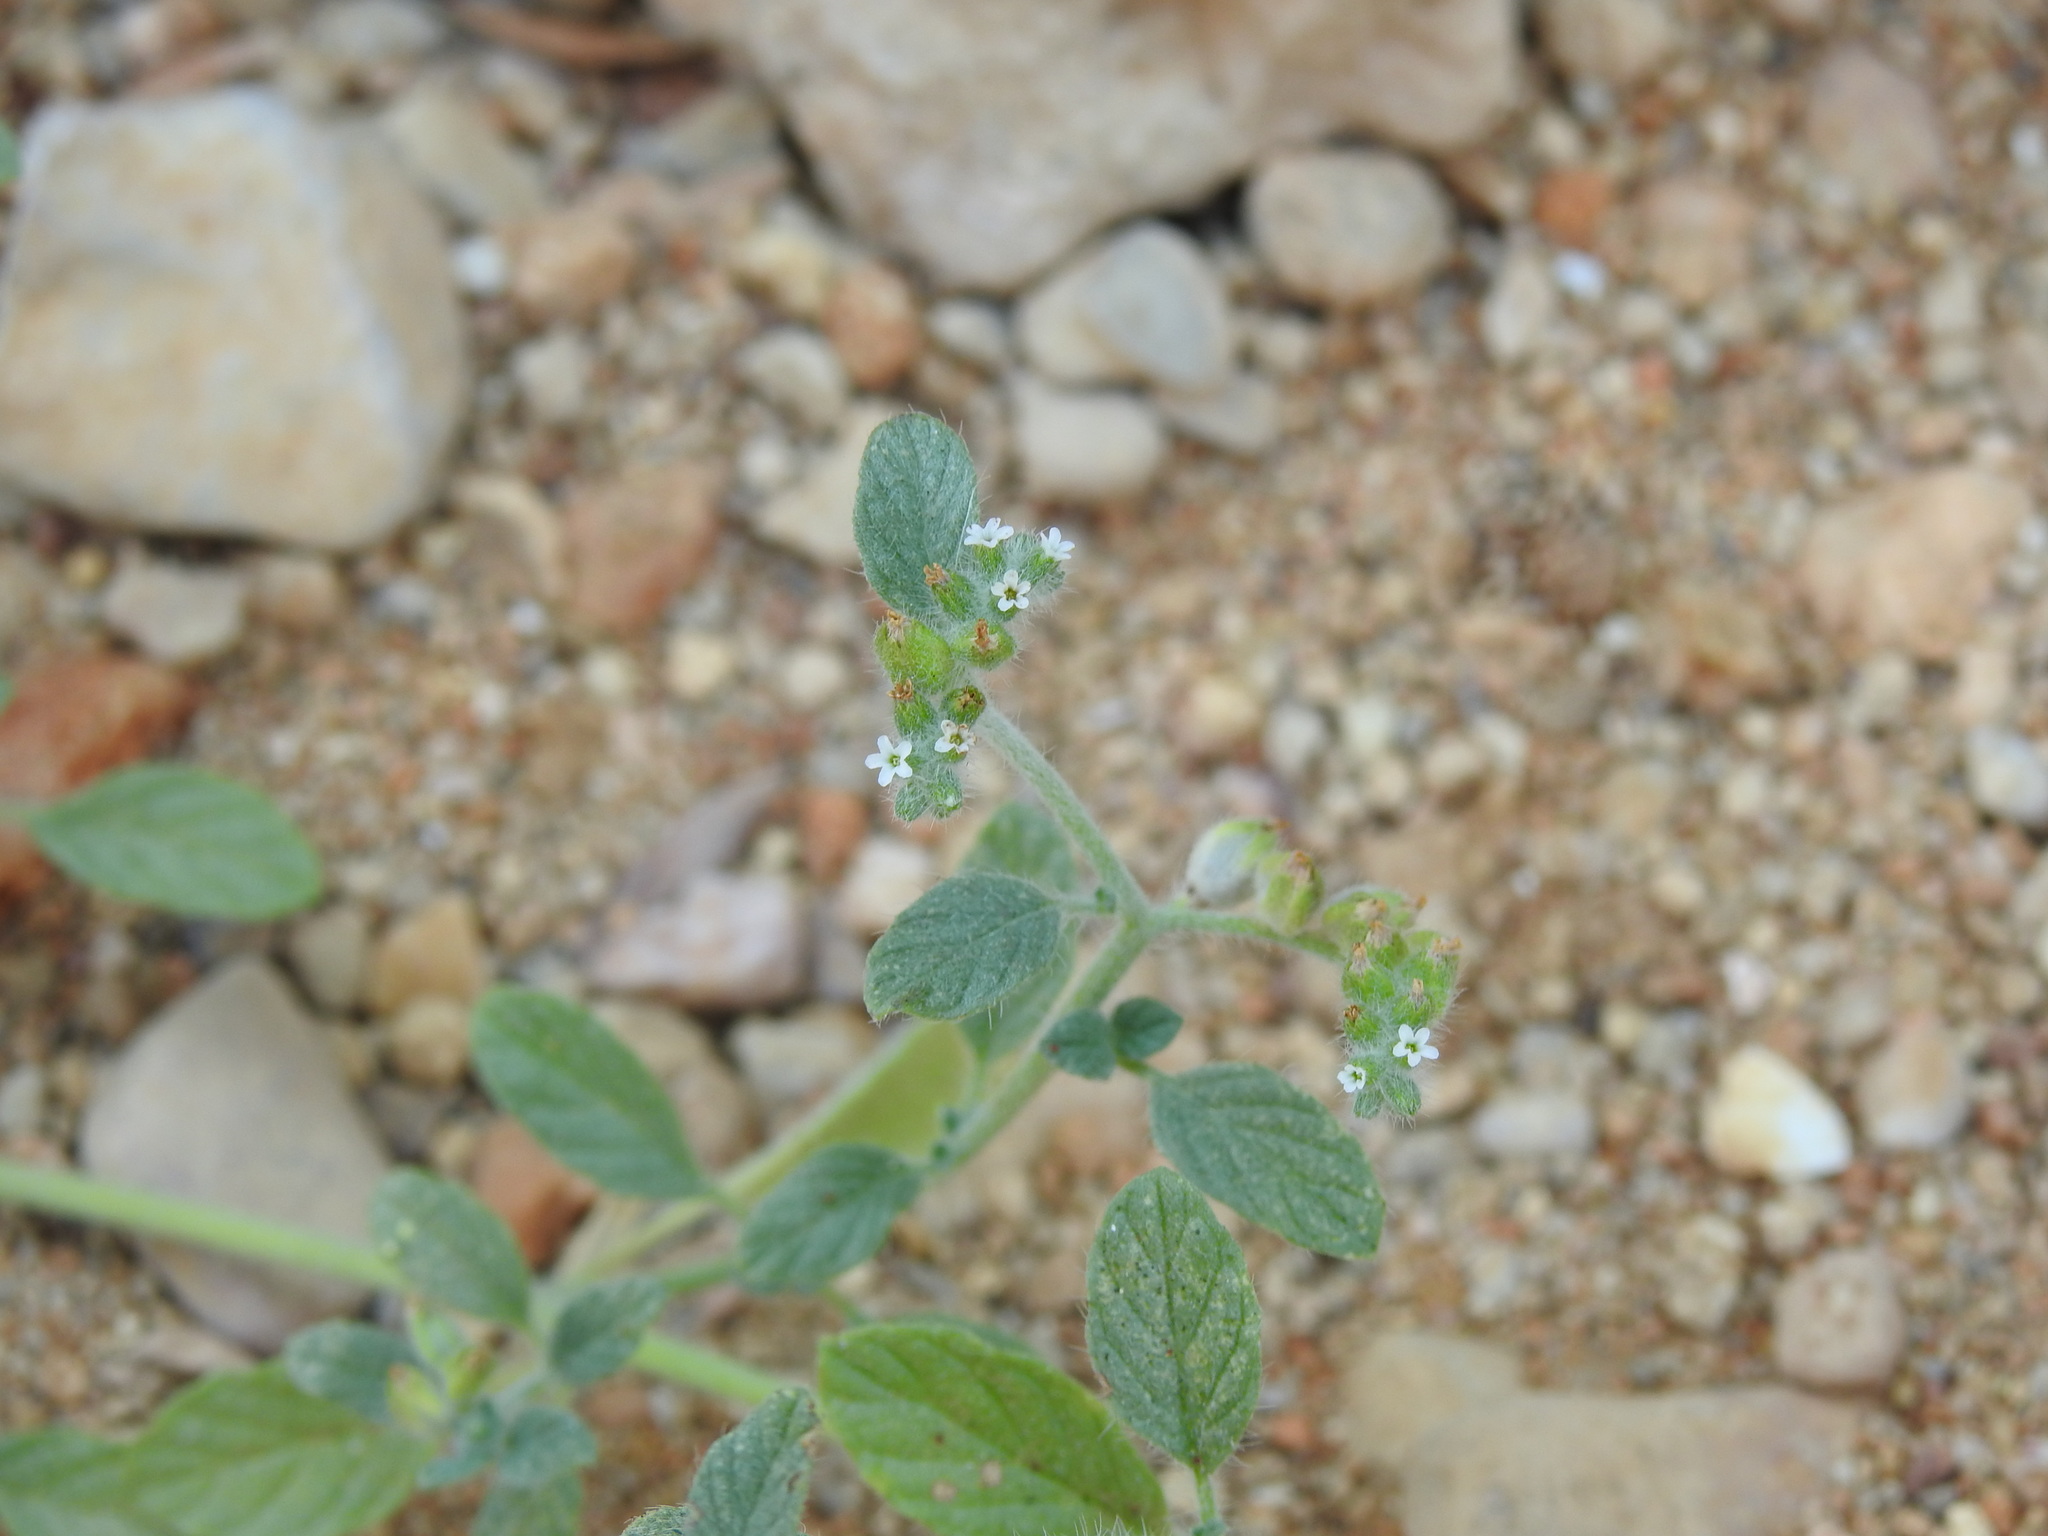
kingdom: Plantae
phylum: Tracheophyta
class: Magnoliopsida
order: Boraginales
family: Heliotropiaceae
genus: Heliotropium
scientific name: Heliotropium supinum
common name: Dwarf heliotrope
